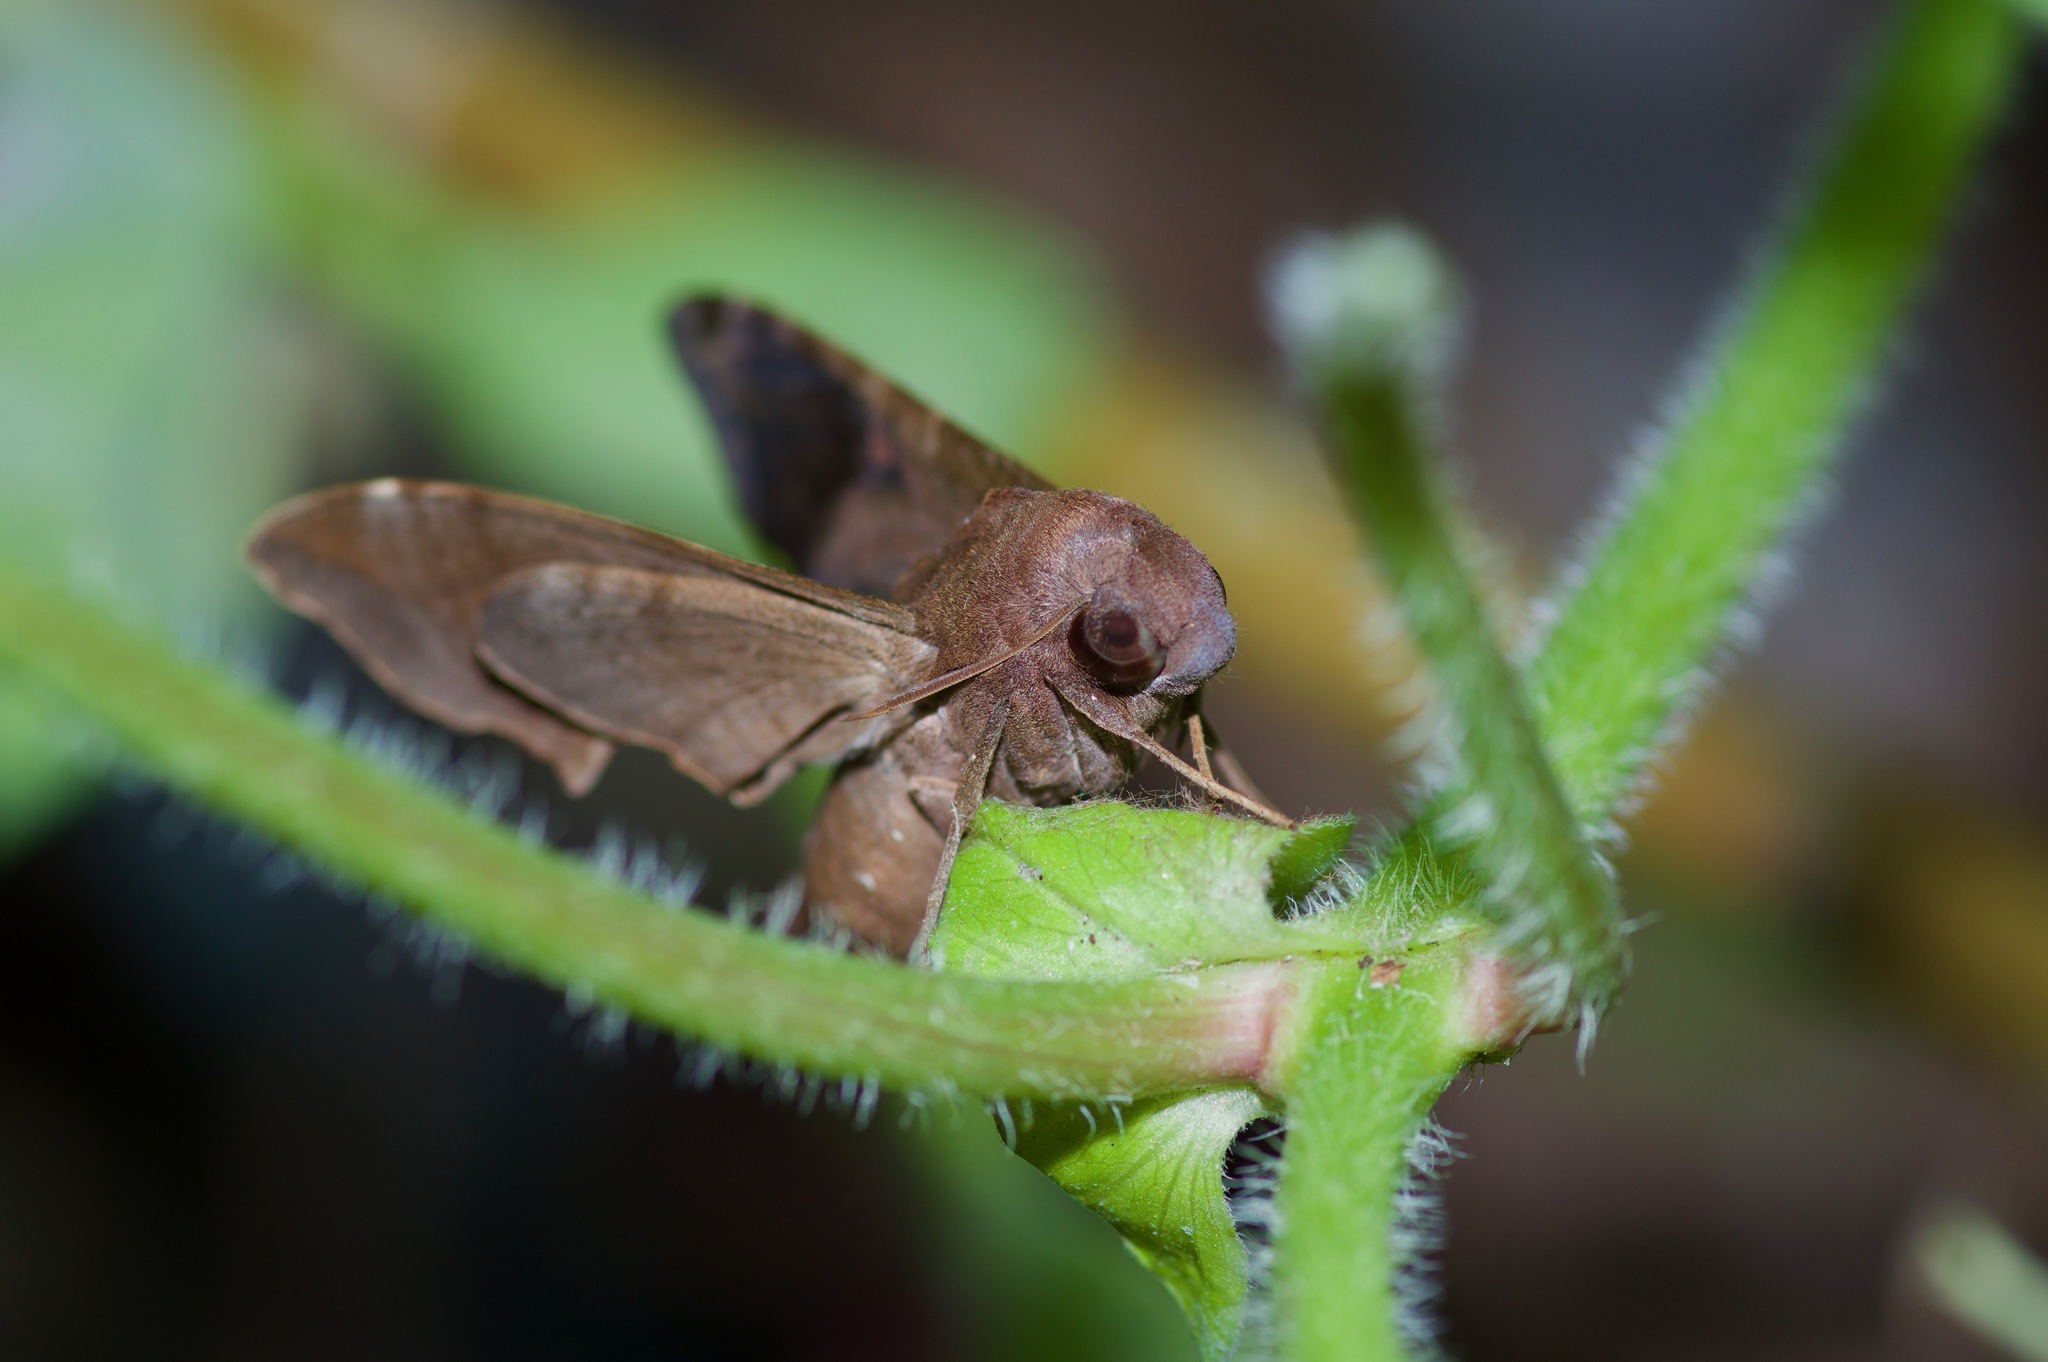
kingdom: Animalia
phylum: Arthropoda
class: Insecta
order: Lepidoptera
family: Sphingidae
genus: Enyo
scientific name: Enyo lugubris
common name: Mournful sphinx
